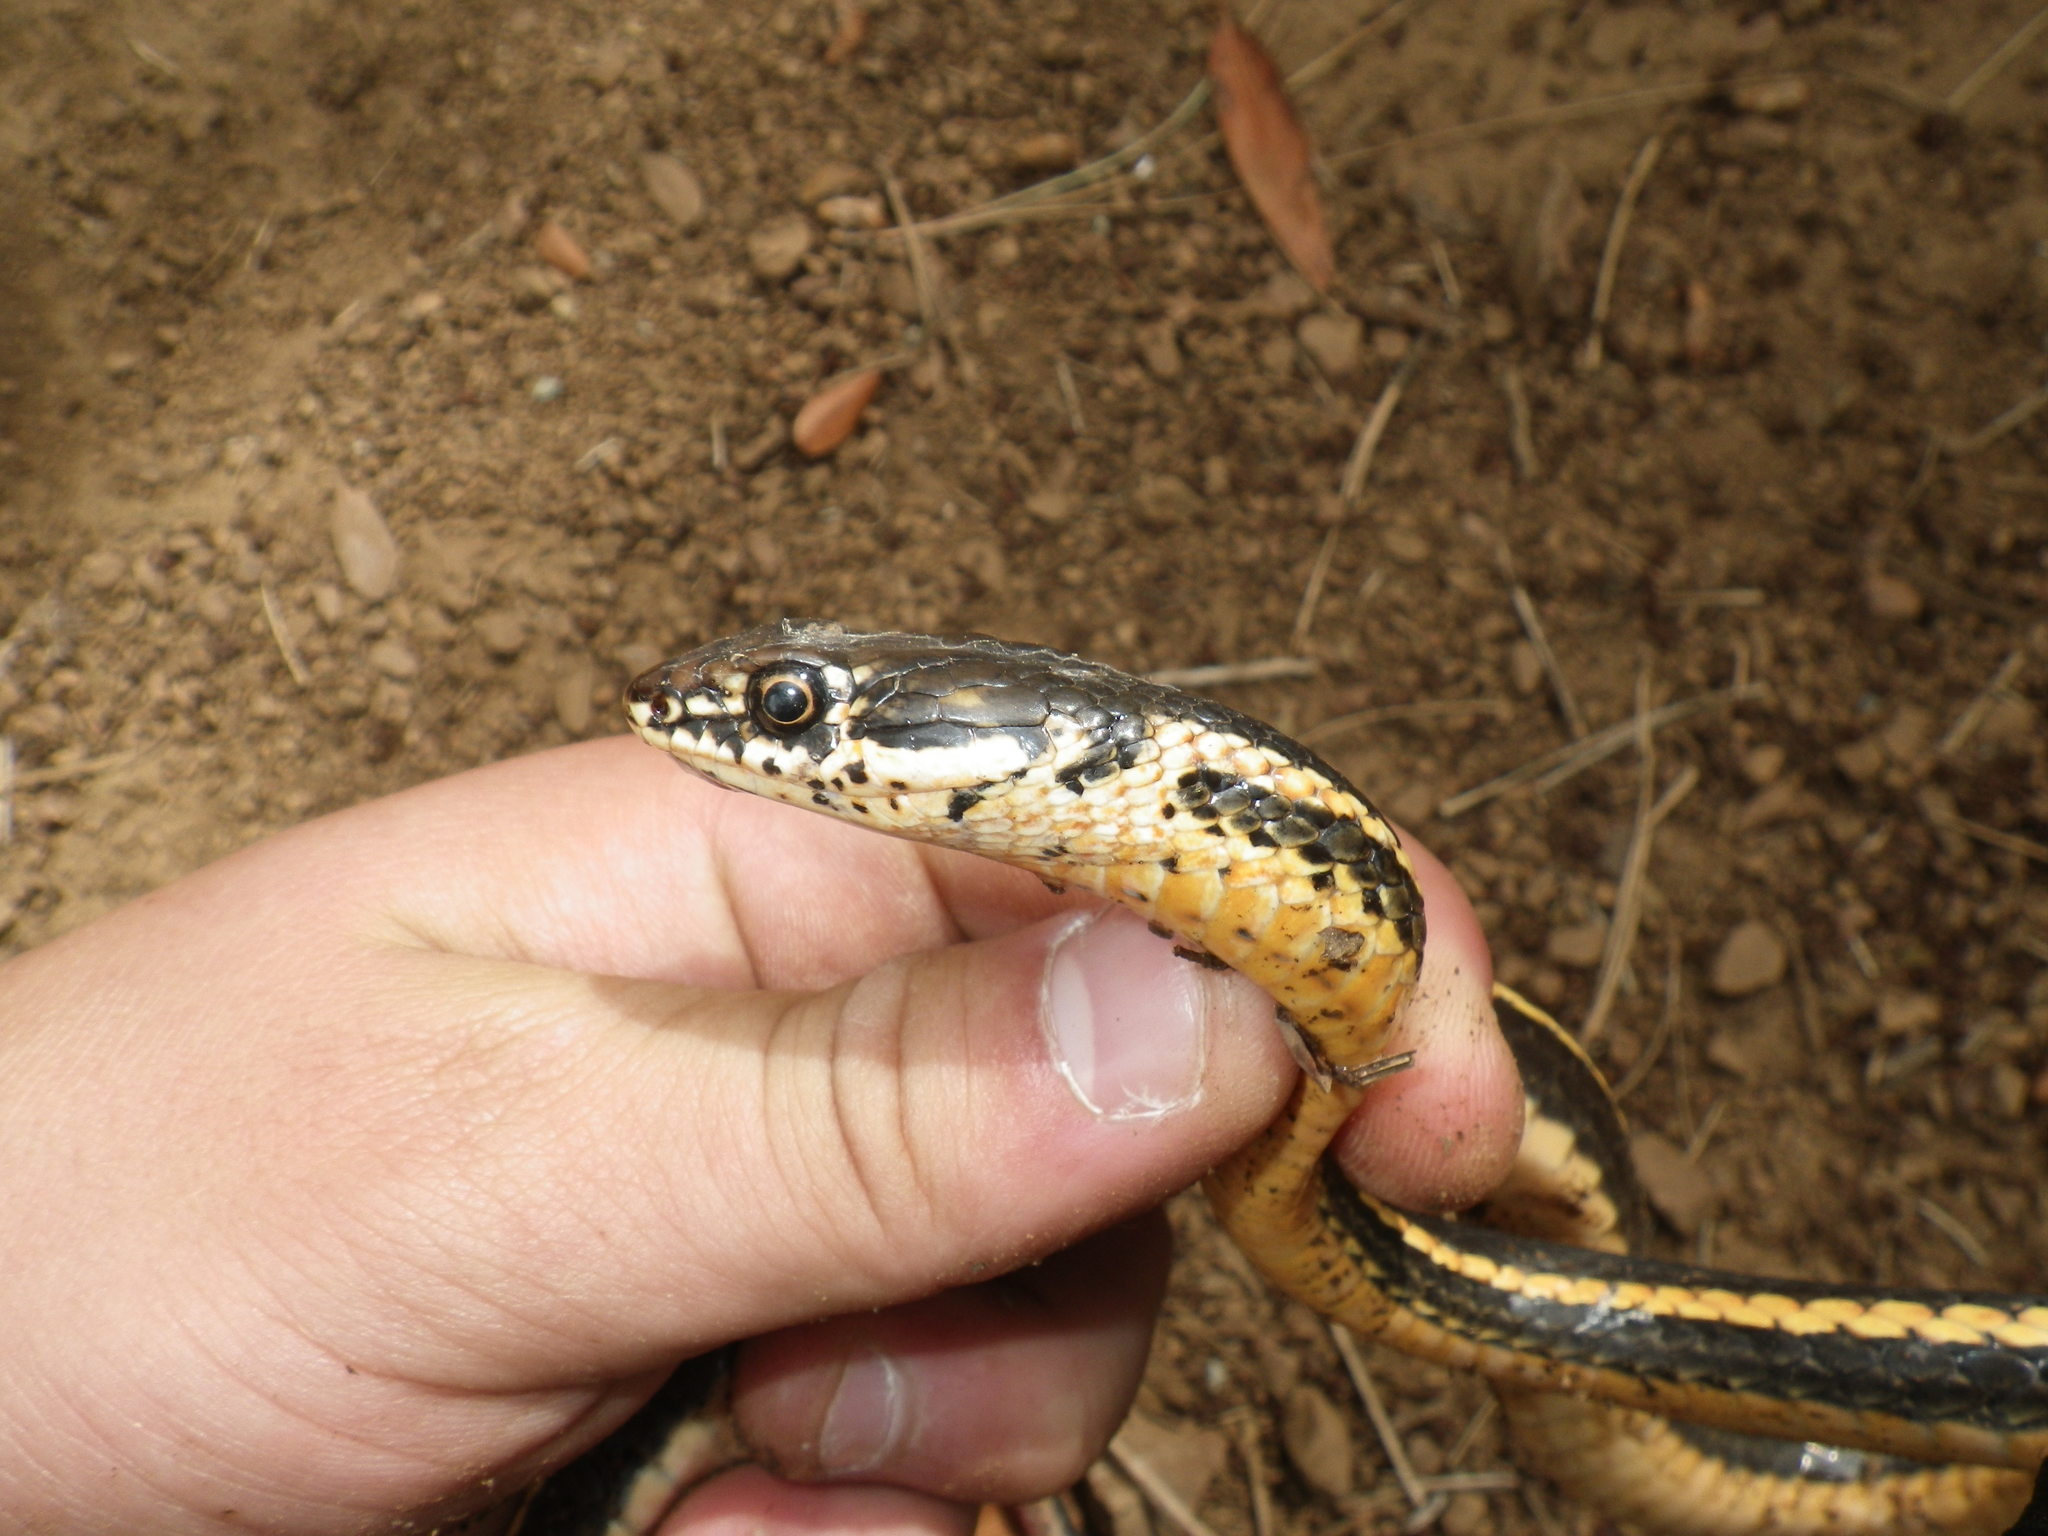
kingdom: Animalia
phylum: Chordata
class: Squamata
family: Colubridae
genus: Masticophis
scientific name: Masticophis lateralis
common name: Striped racer
